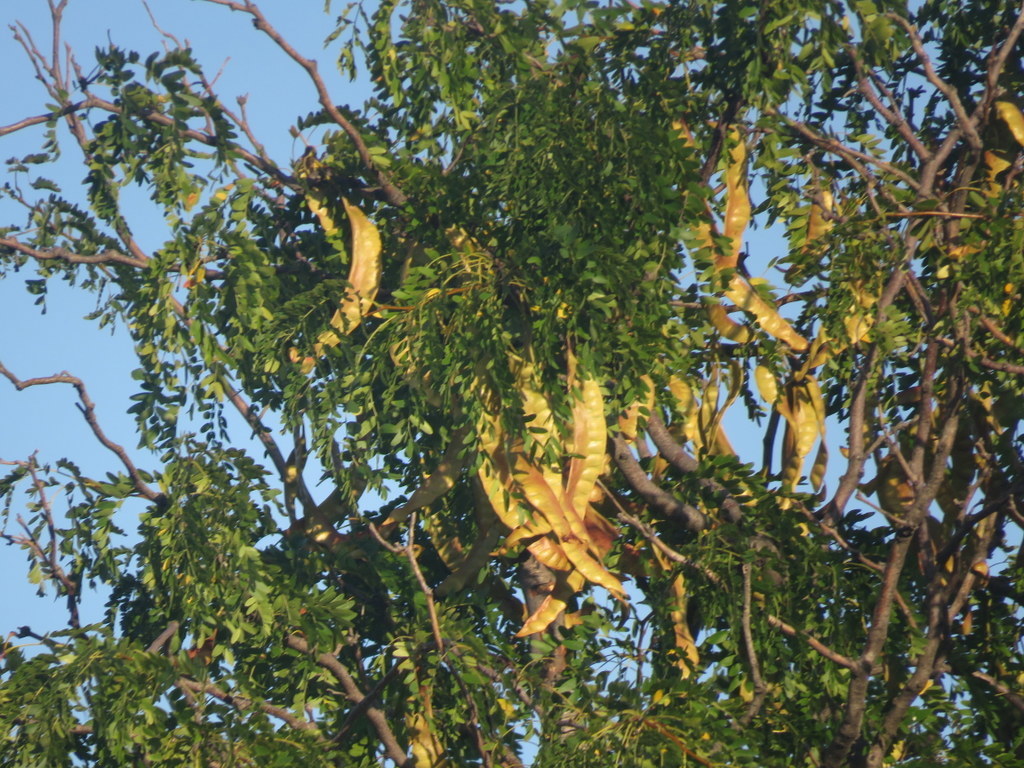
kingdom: Plantae
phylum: Tracheophyta
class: Magnoliopsida
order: Fabales
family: Fabaceae
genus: Gleditsia
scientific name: Gleditsia triacanthos
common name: Common honeylocust
